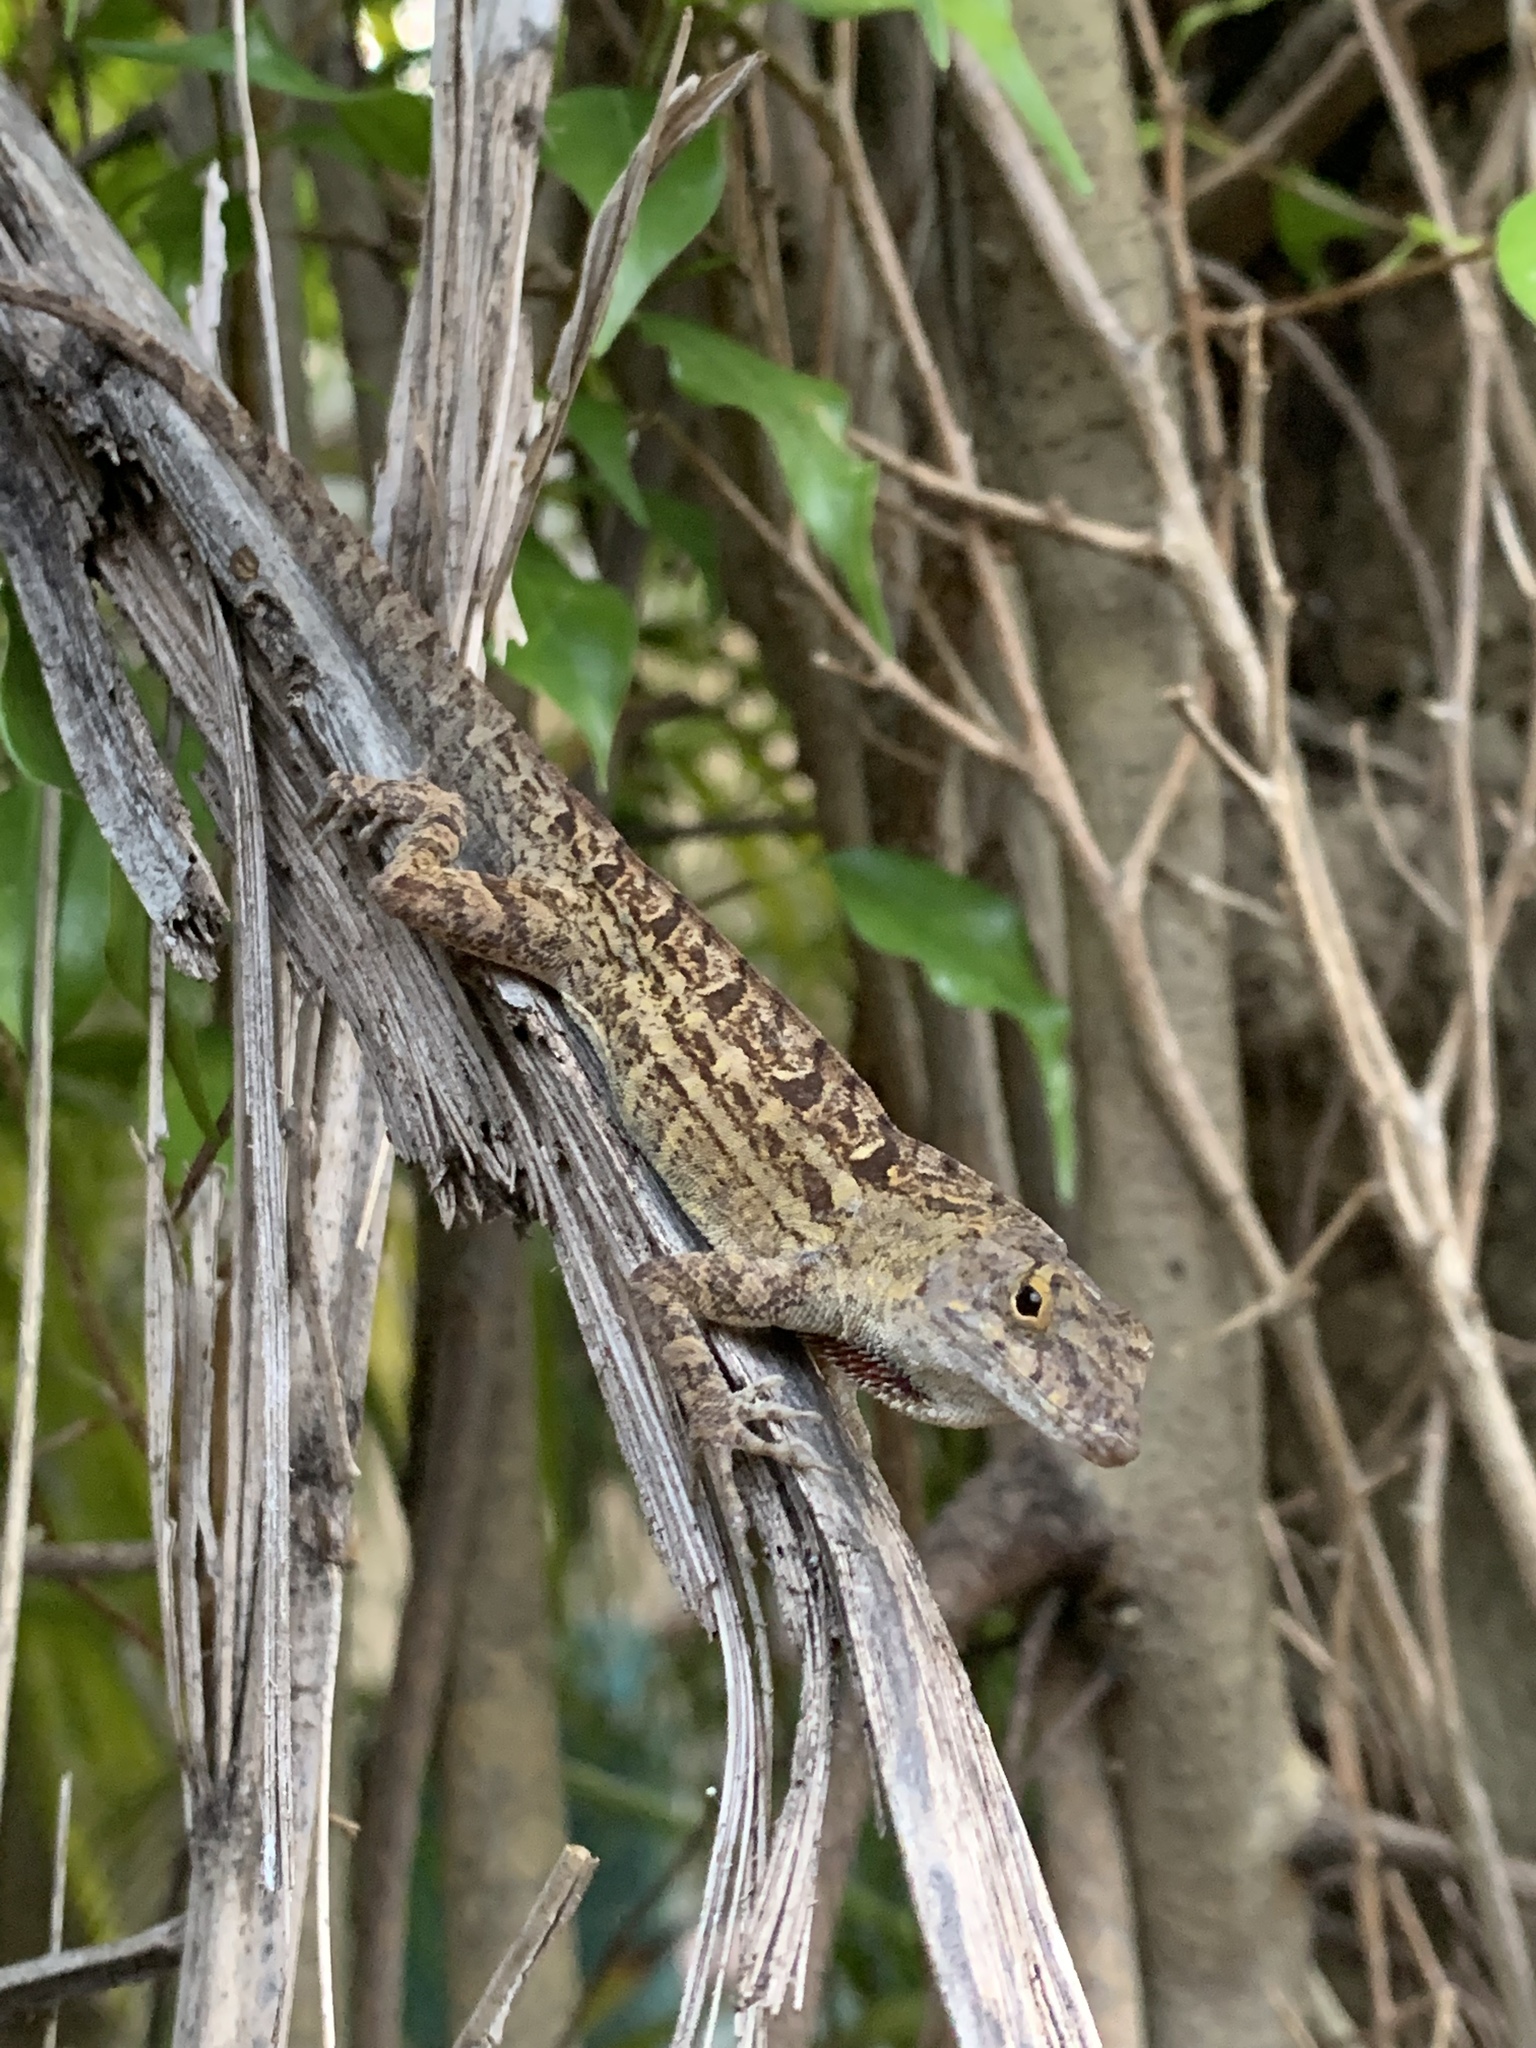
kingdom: Animalia
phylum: Chordata
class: Squamata
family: Dactyloidae
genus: Anolis
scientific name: Anolis sagrei
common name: Brown anole
